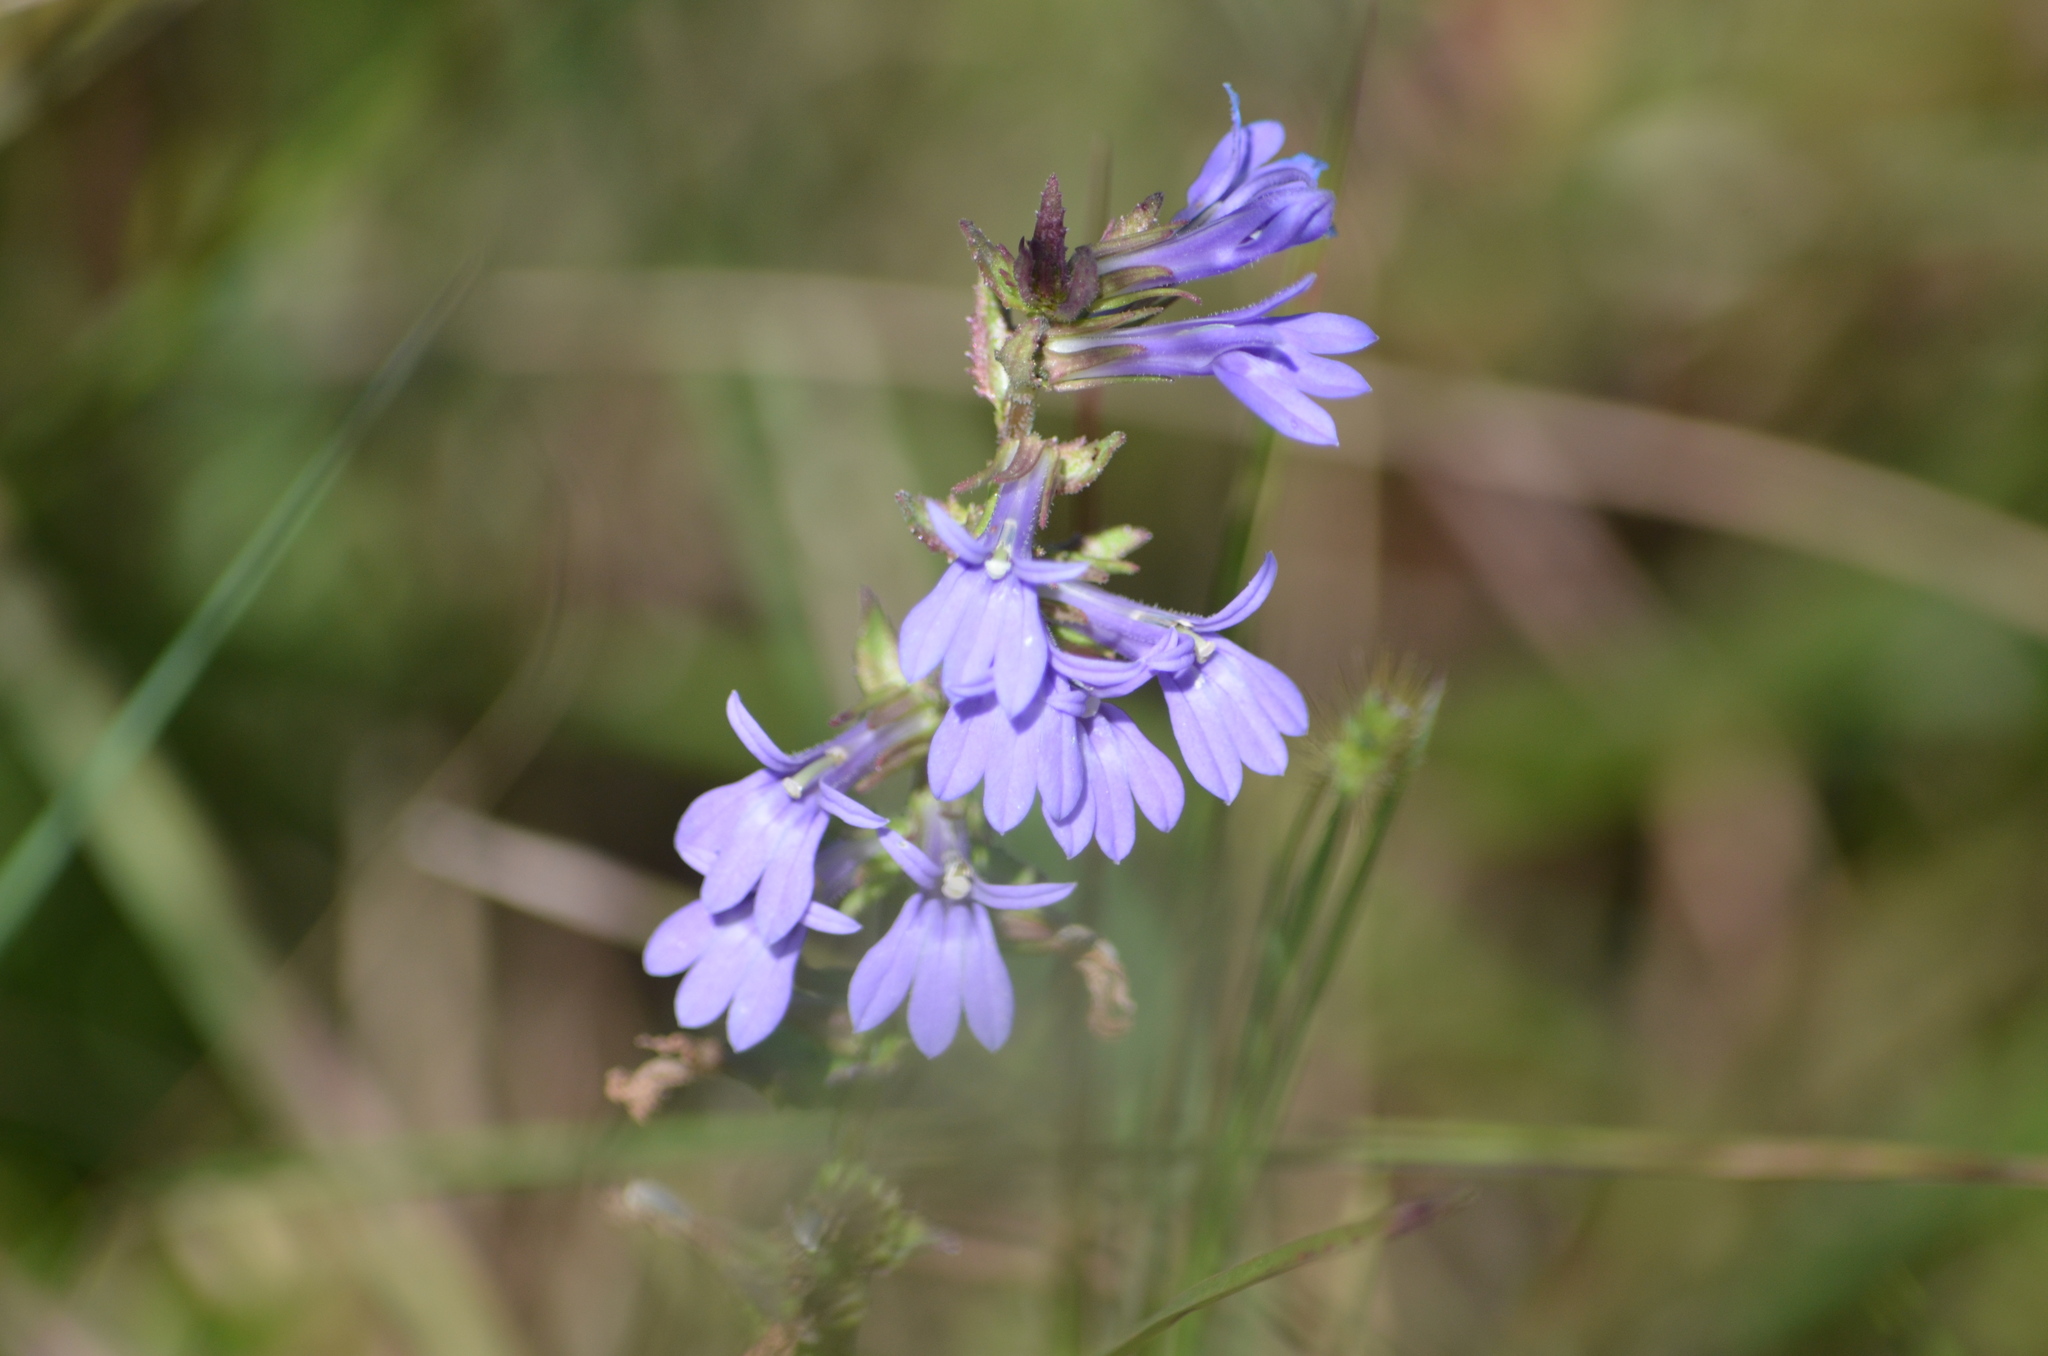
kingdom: Plantae
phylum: Tracheophyta
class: Magnoliopsida
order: Asterales
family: Campanulaceae
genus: Lobelia
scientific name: Lobelia puberula
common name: Purple dewdrop
